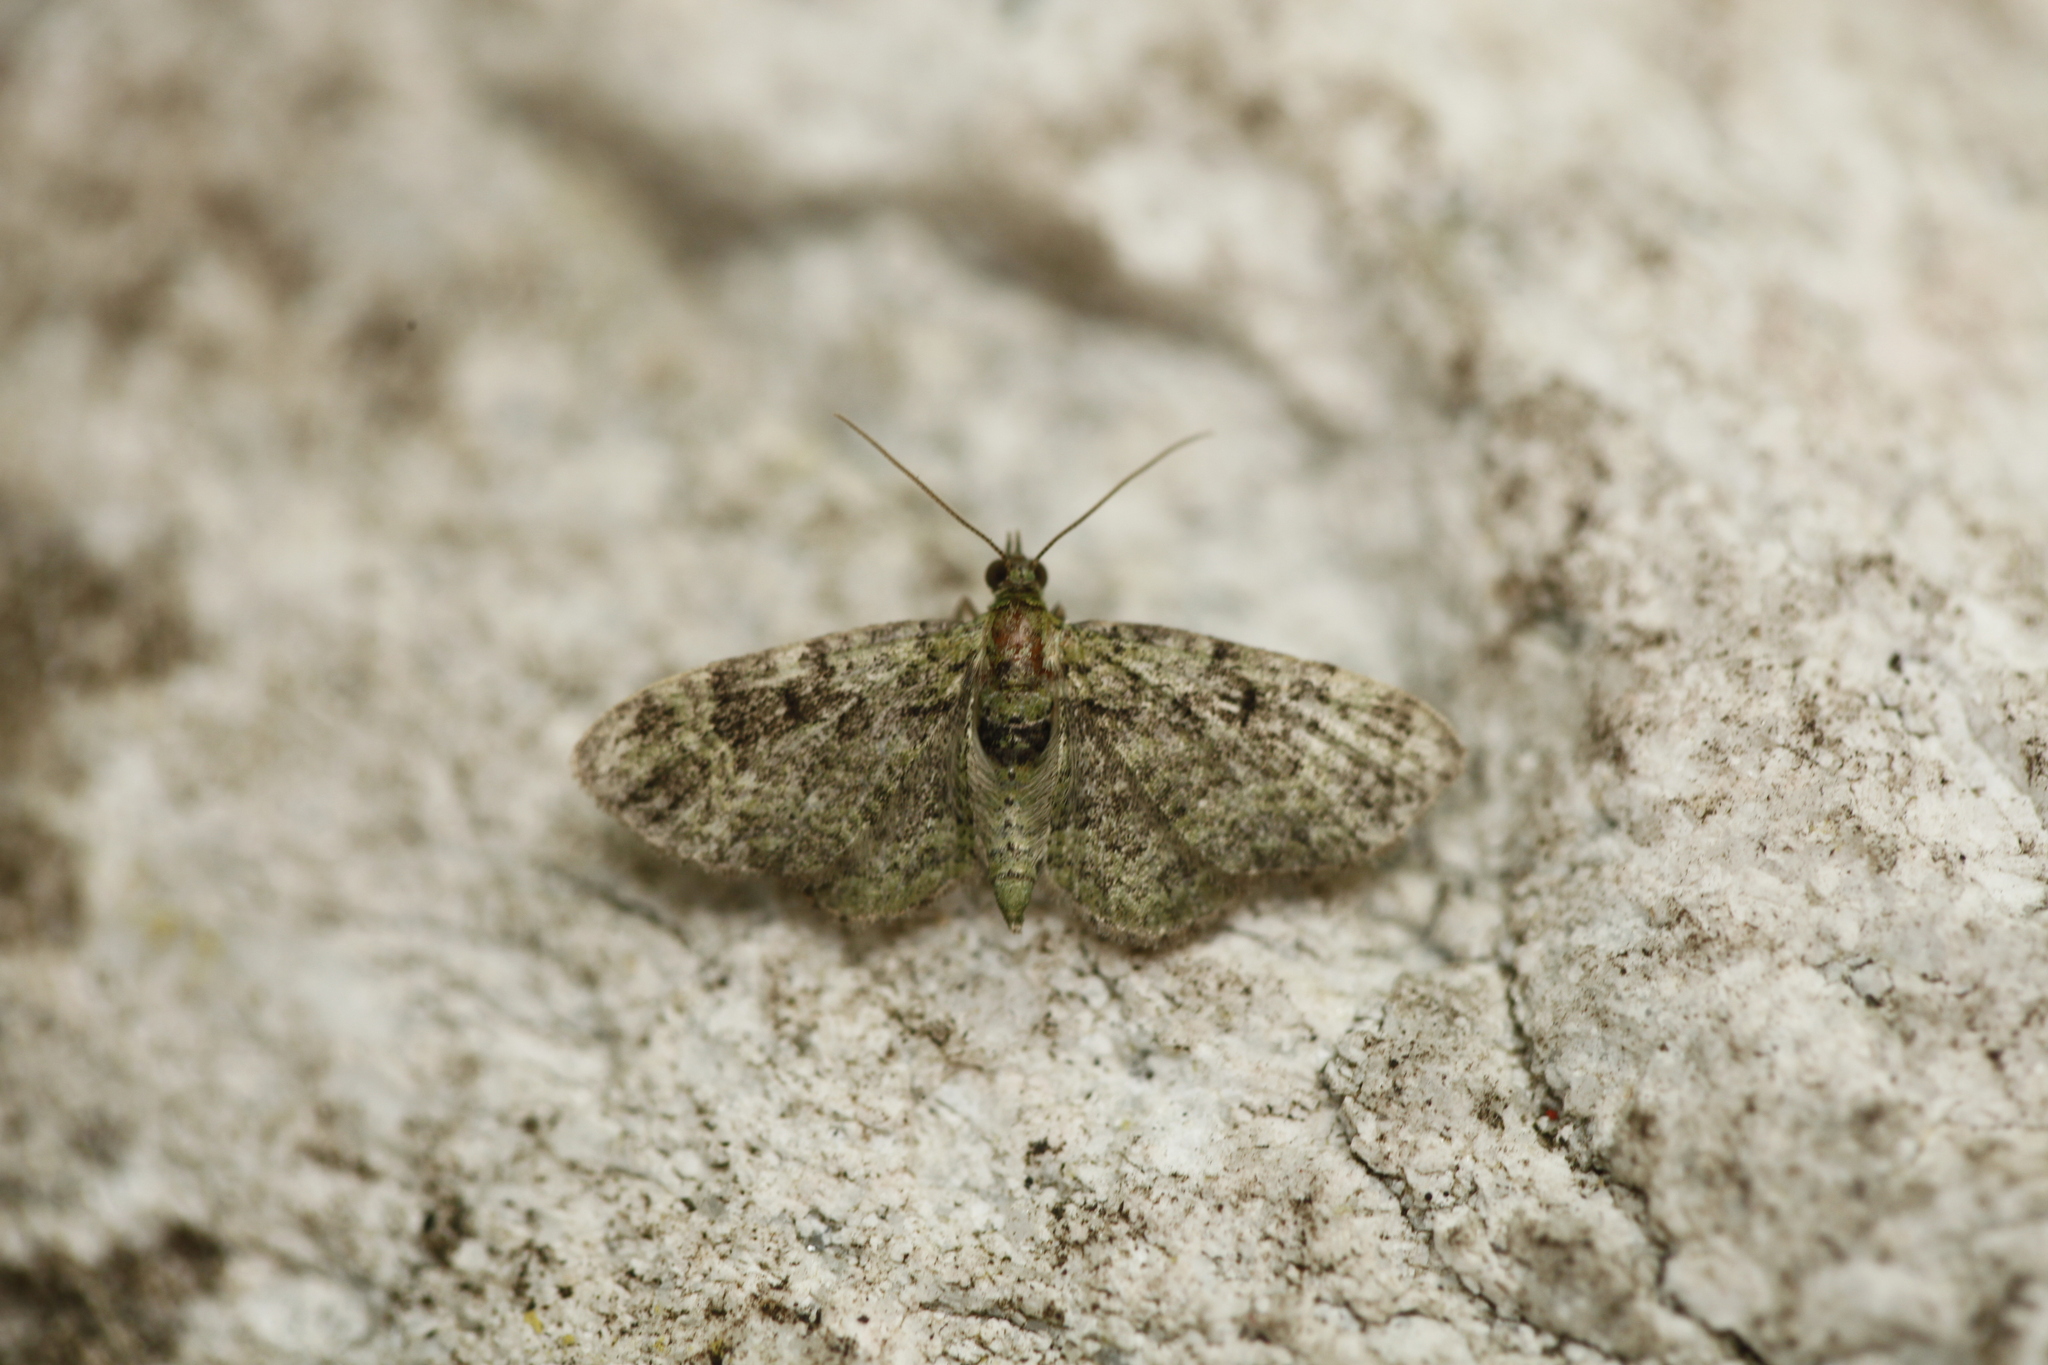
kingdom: Animalia
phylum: Arthropoda
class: Insecta
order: Lepidoptera
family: Geometridae
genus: Pasiphila
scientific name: Pasiphila rectangulata
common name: Green pug
